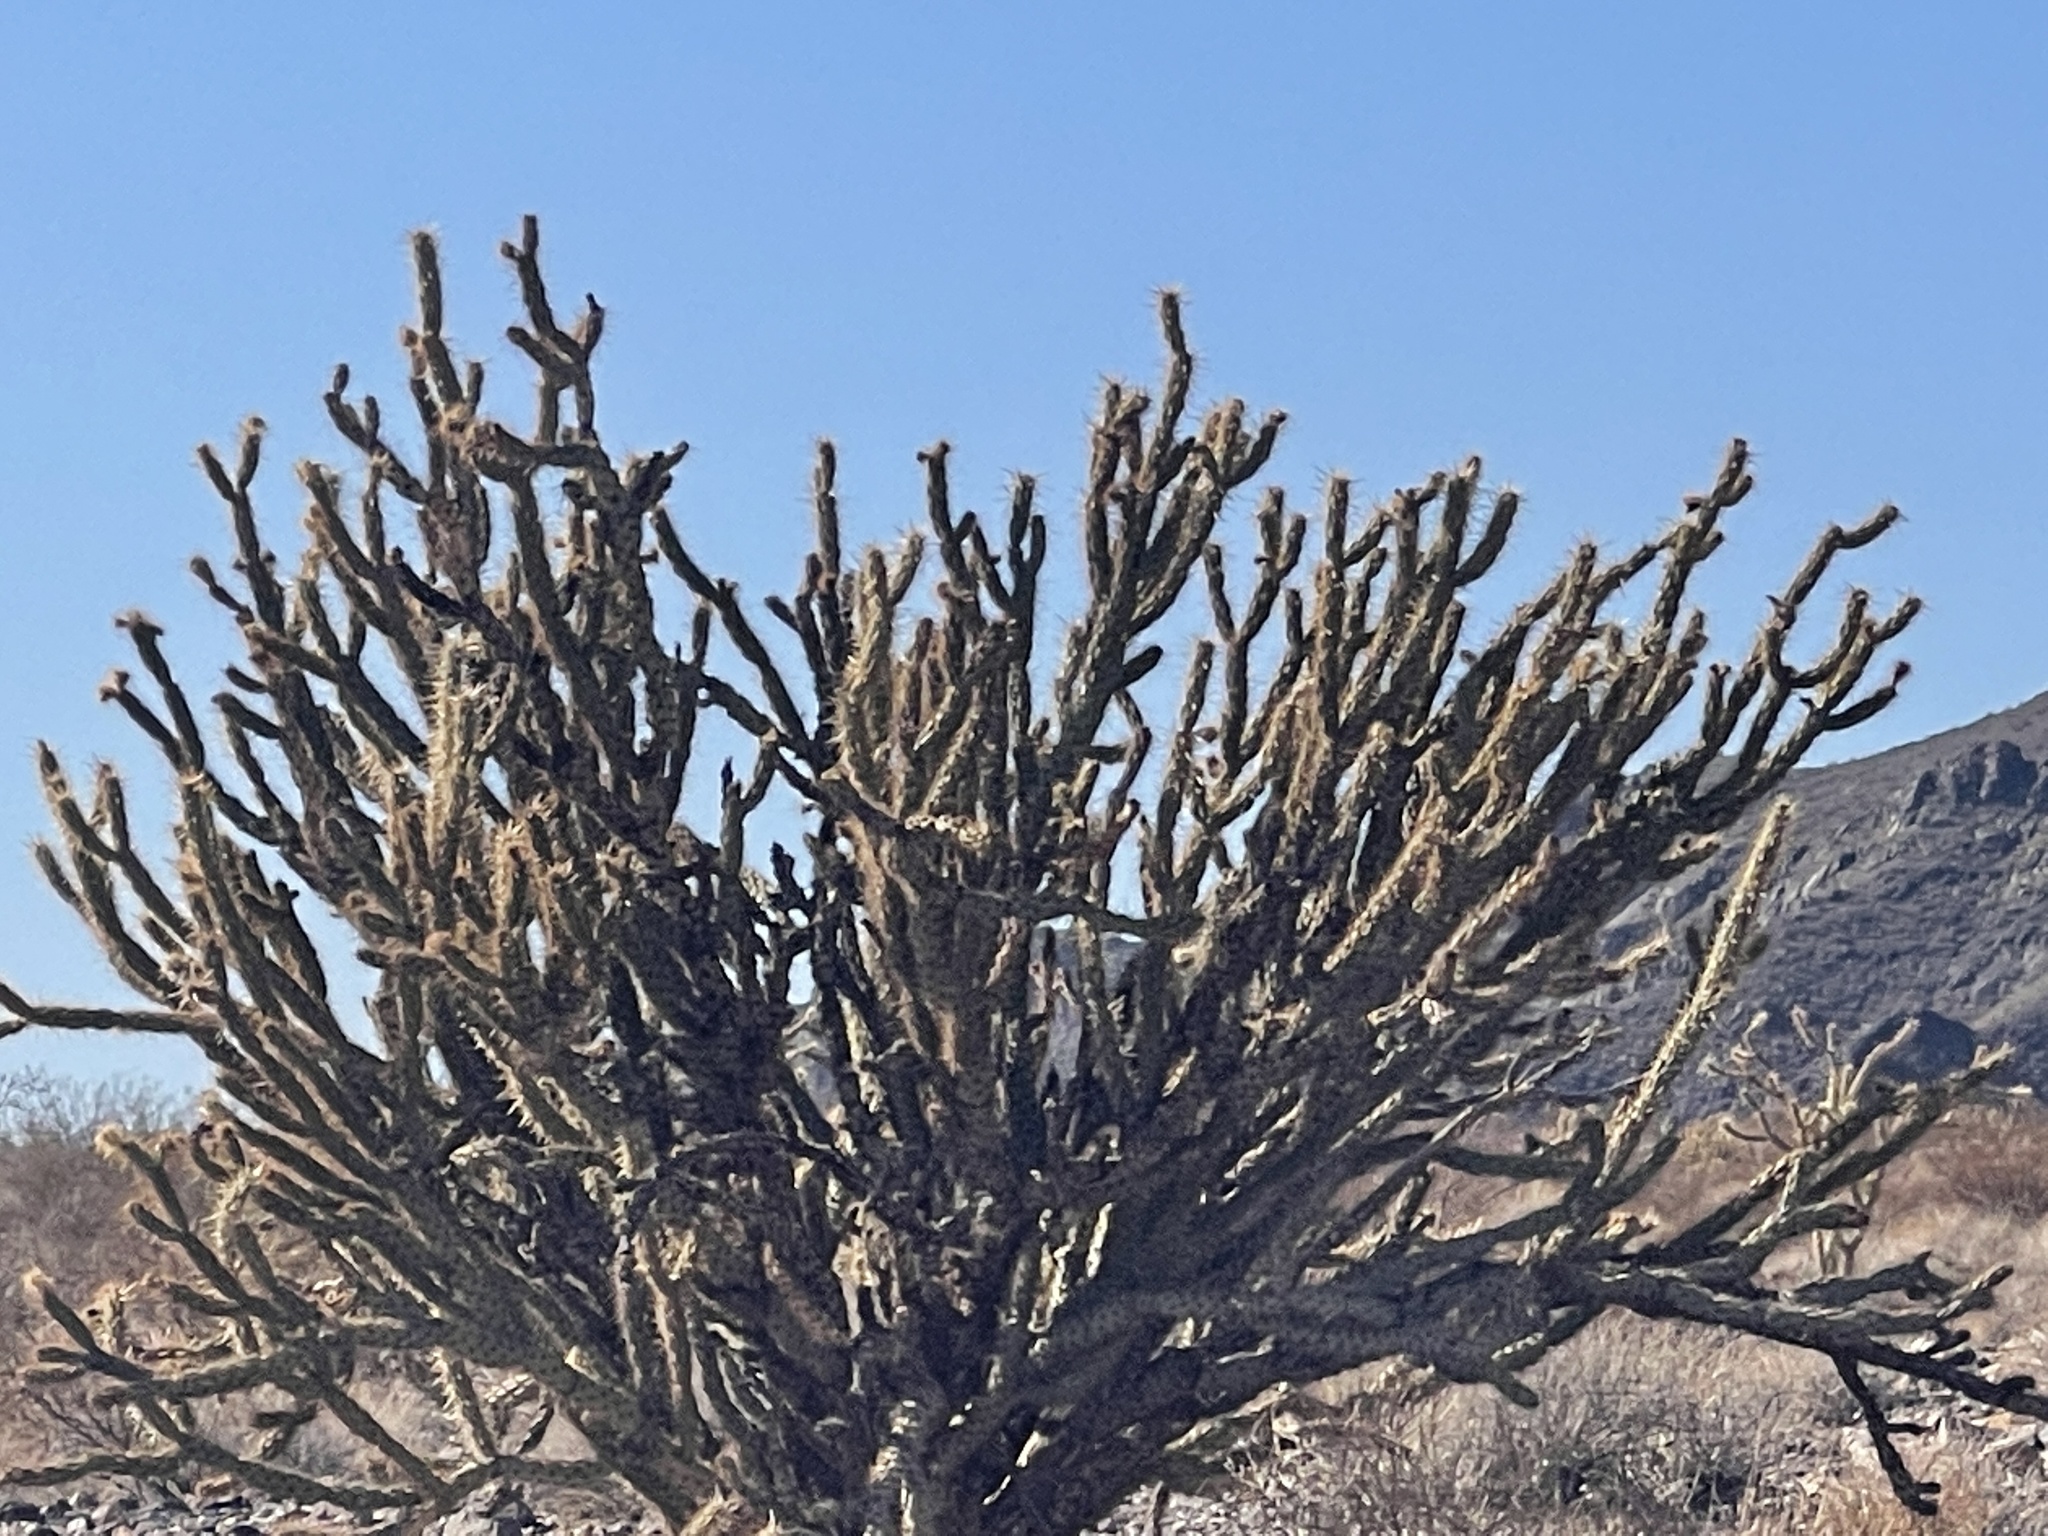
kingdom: Plantae
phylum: Tracheophyta
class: Magnoliopsida
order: Caryophyllales
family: Cactaceae
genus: Cylindropuntia
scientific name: Cylindropuntia acanthocarpa
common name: Buckhorn cholla
